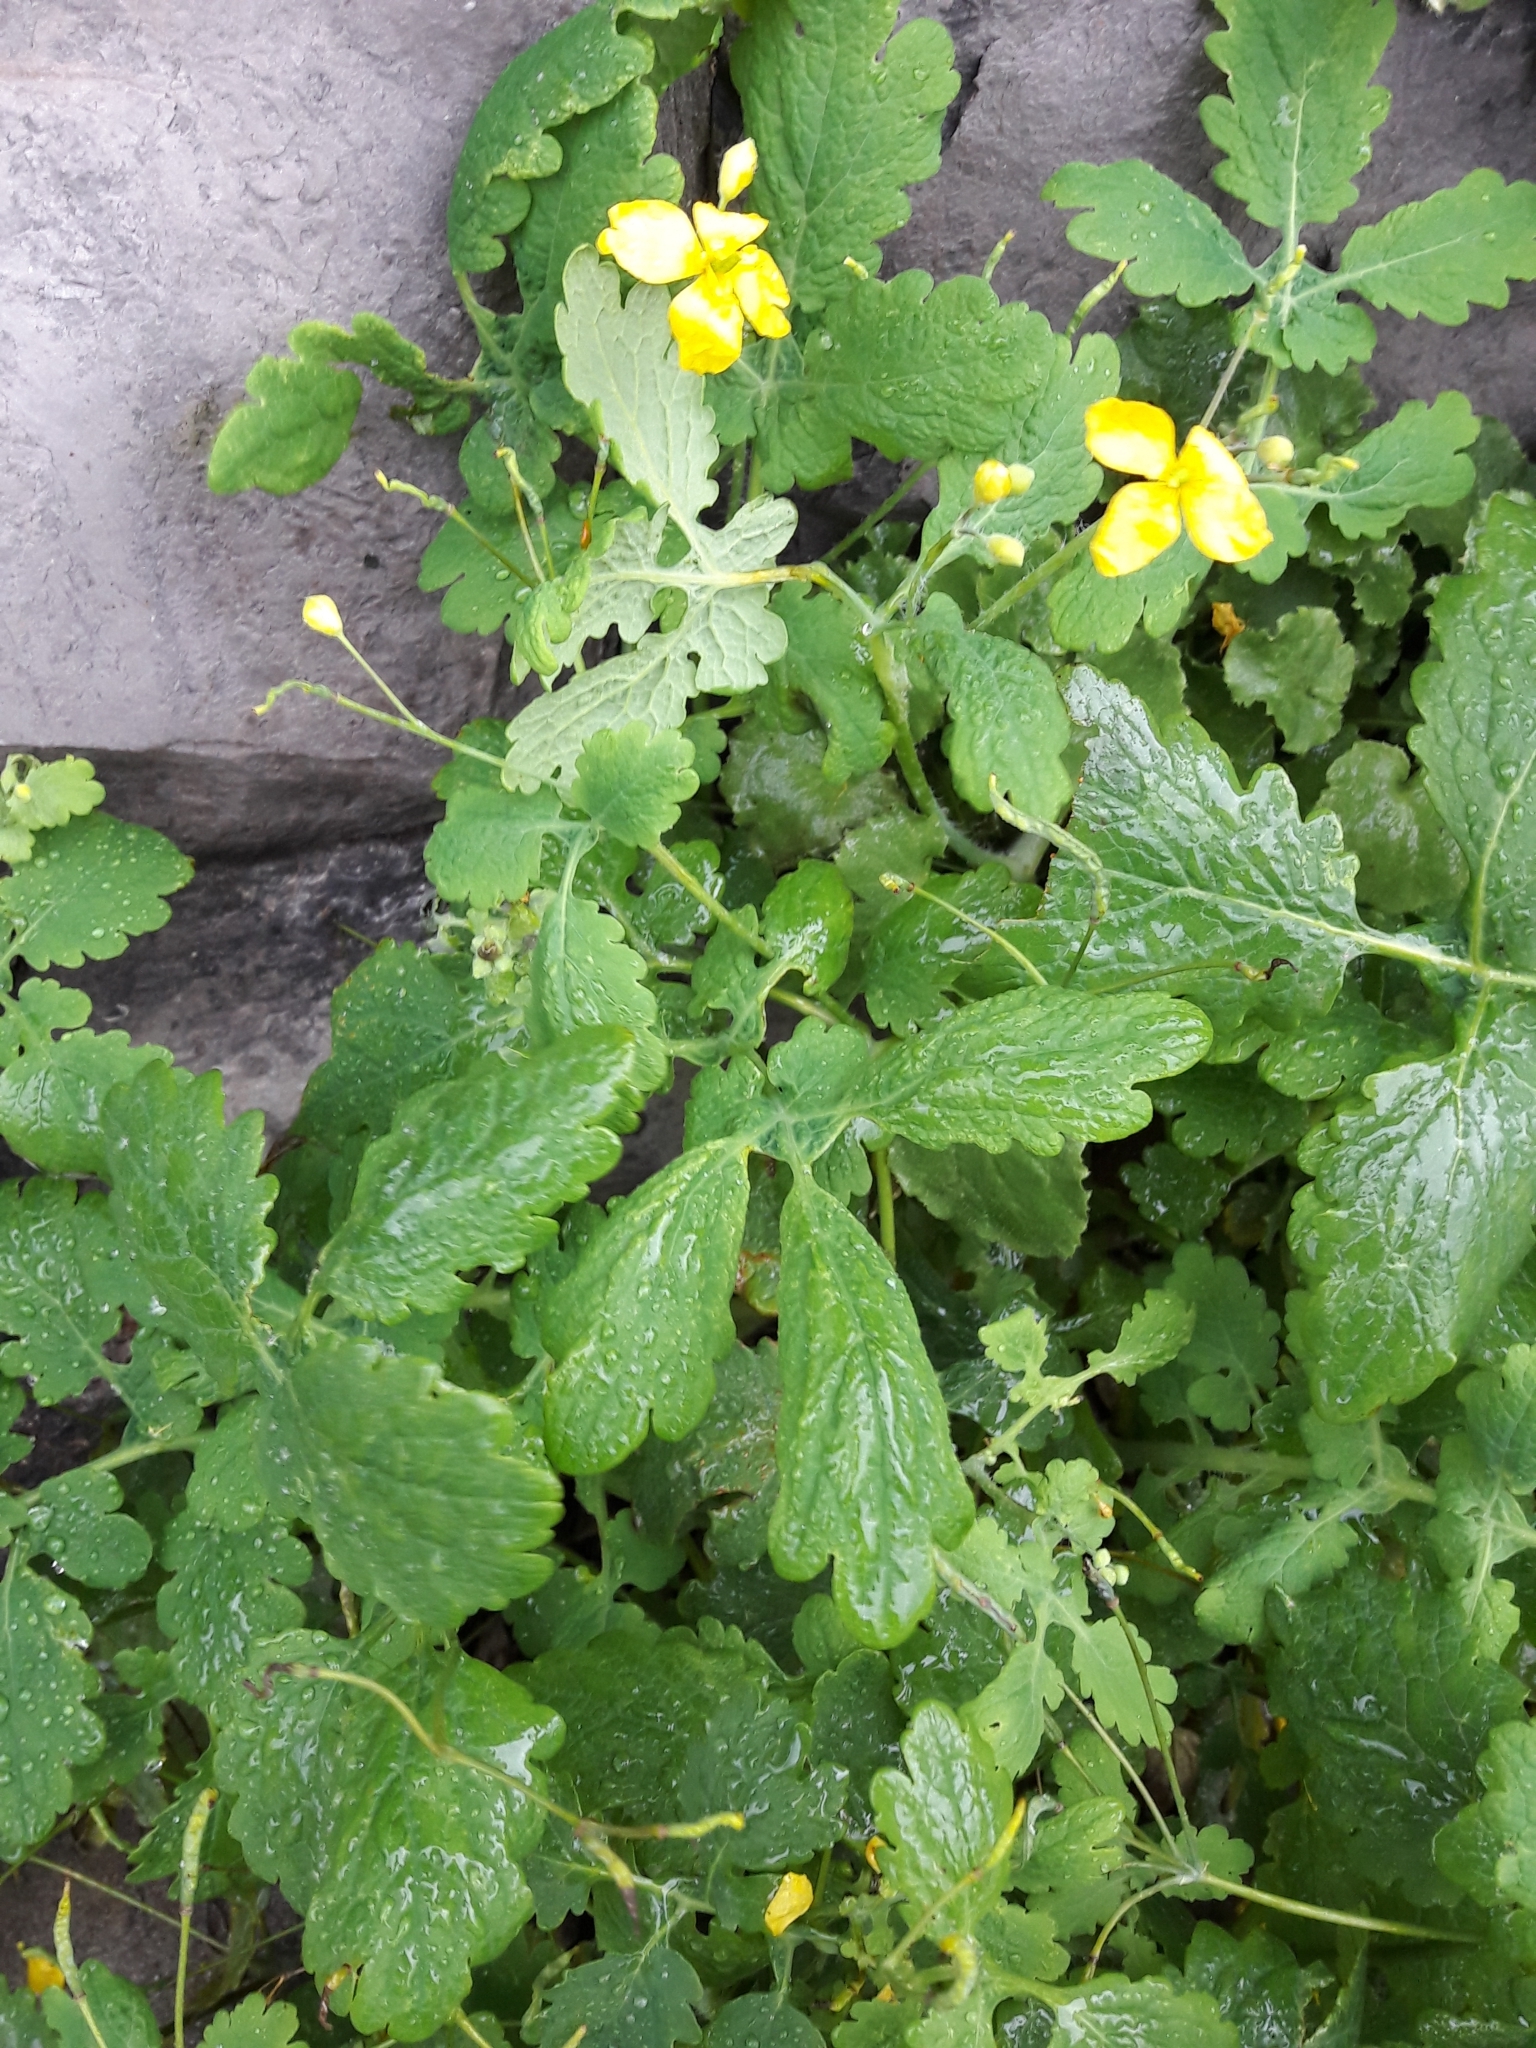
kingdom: Plantae
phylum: Tracheophyta
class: Magnoliopsida
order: Ranunculales
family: Papaveraceae
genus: Chelidonium
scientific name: Chelidonium majus
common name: Greater celandine
